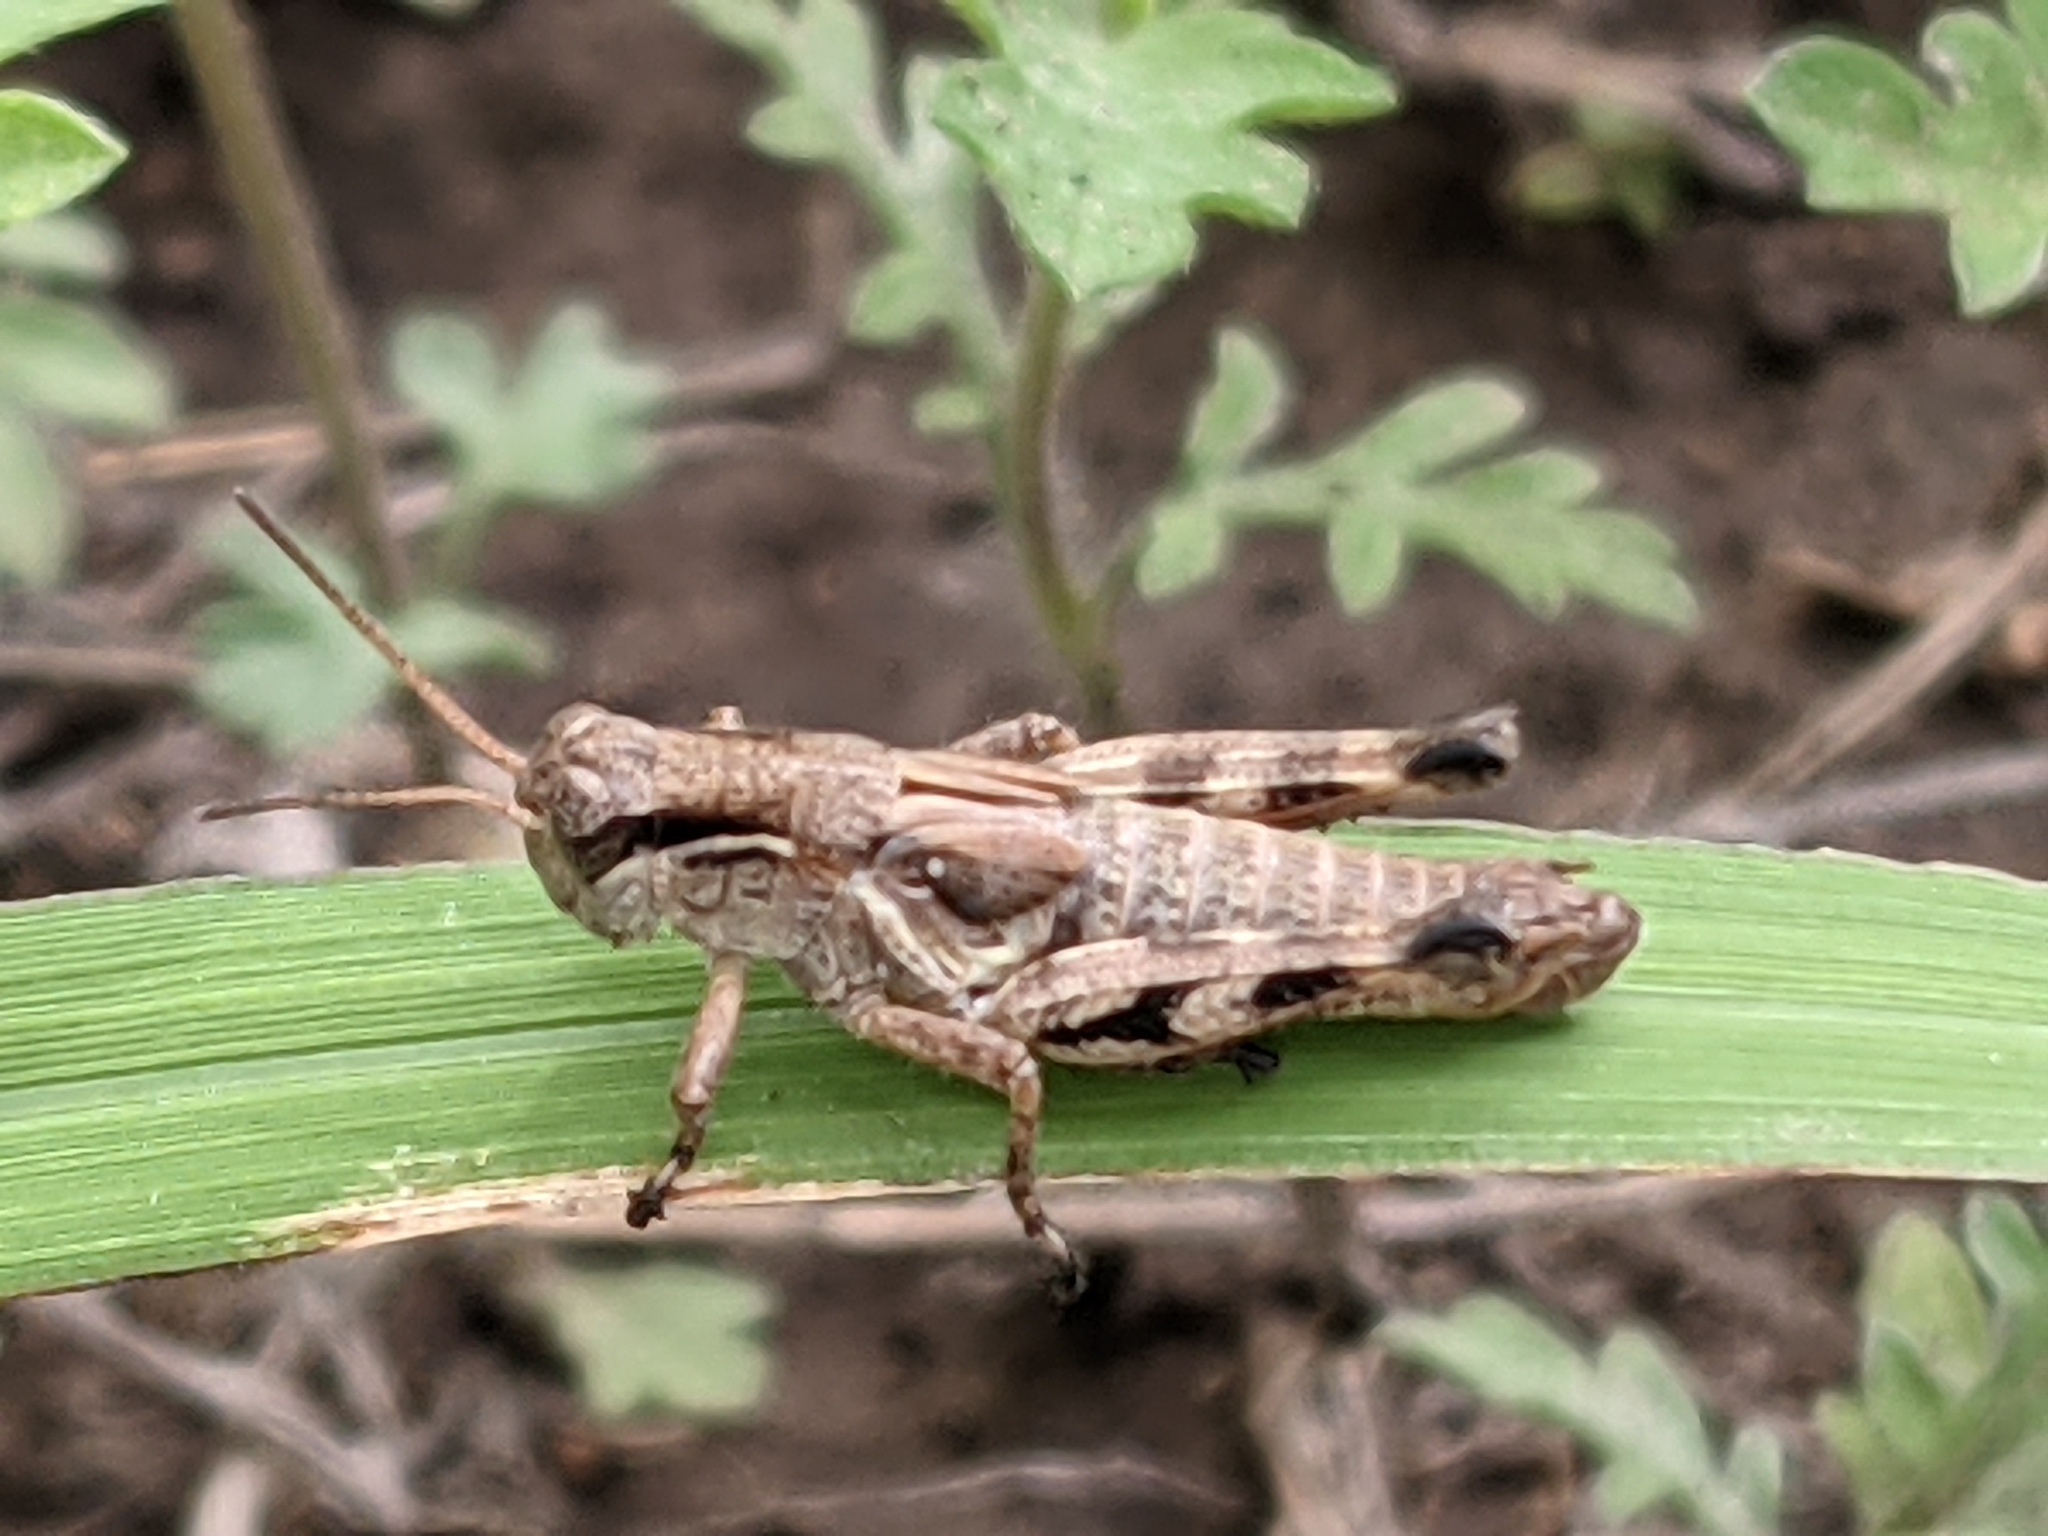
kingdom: Animalia
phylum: Arthropoda
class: Insecta
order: Orthoptera
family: Acrididae
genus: Melanoplus
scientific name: Melanoplus walshii
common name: Walsh's locust
